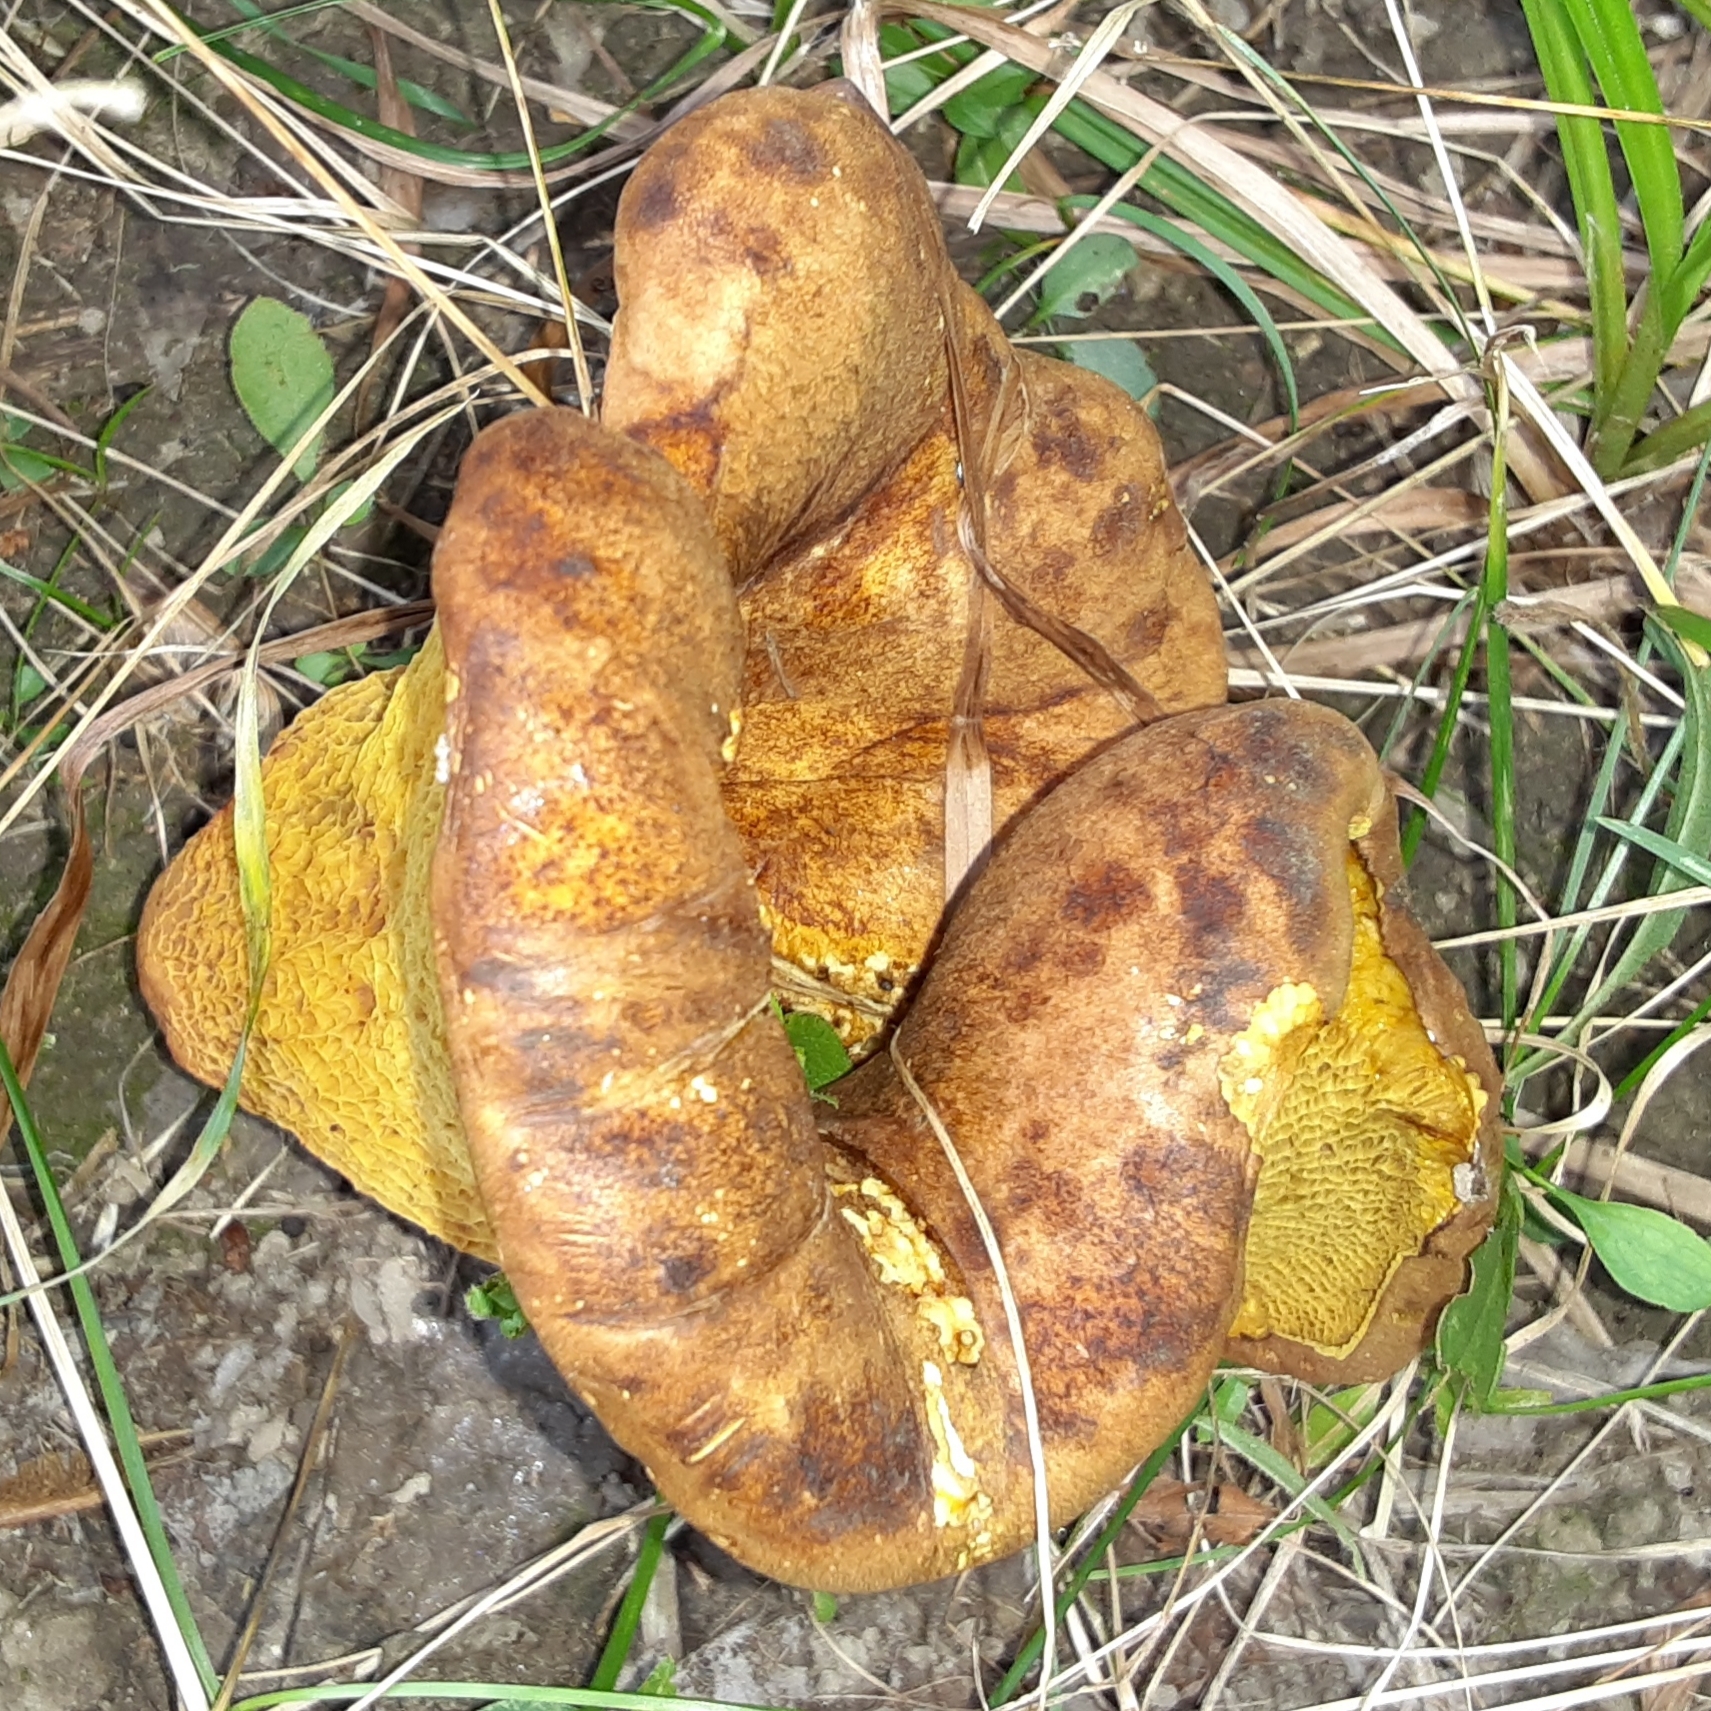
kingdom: Fungi
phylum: Basidiomycota
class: Agaricomycetes
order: Boletales
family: Boletinellaceae
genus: Boletinellus
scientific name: Boletinellus merulioides
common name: Ash tree bolete
